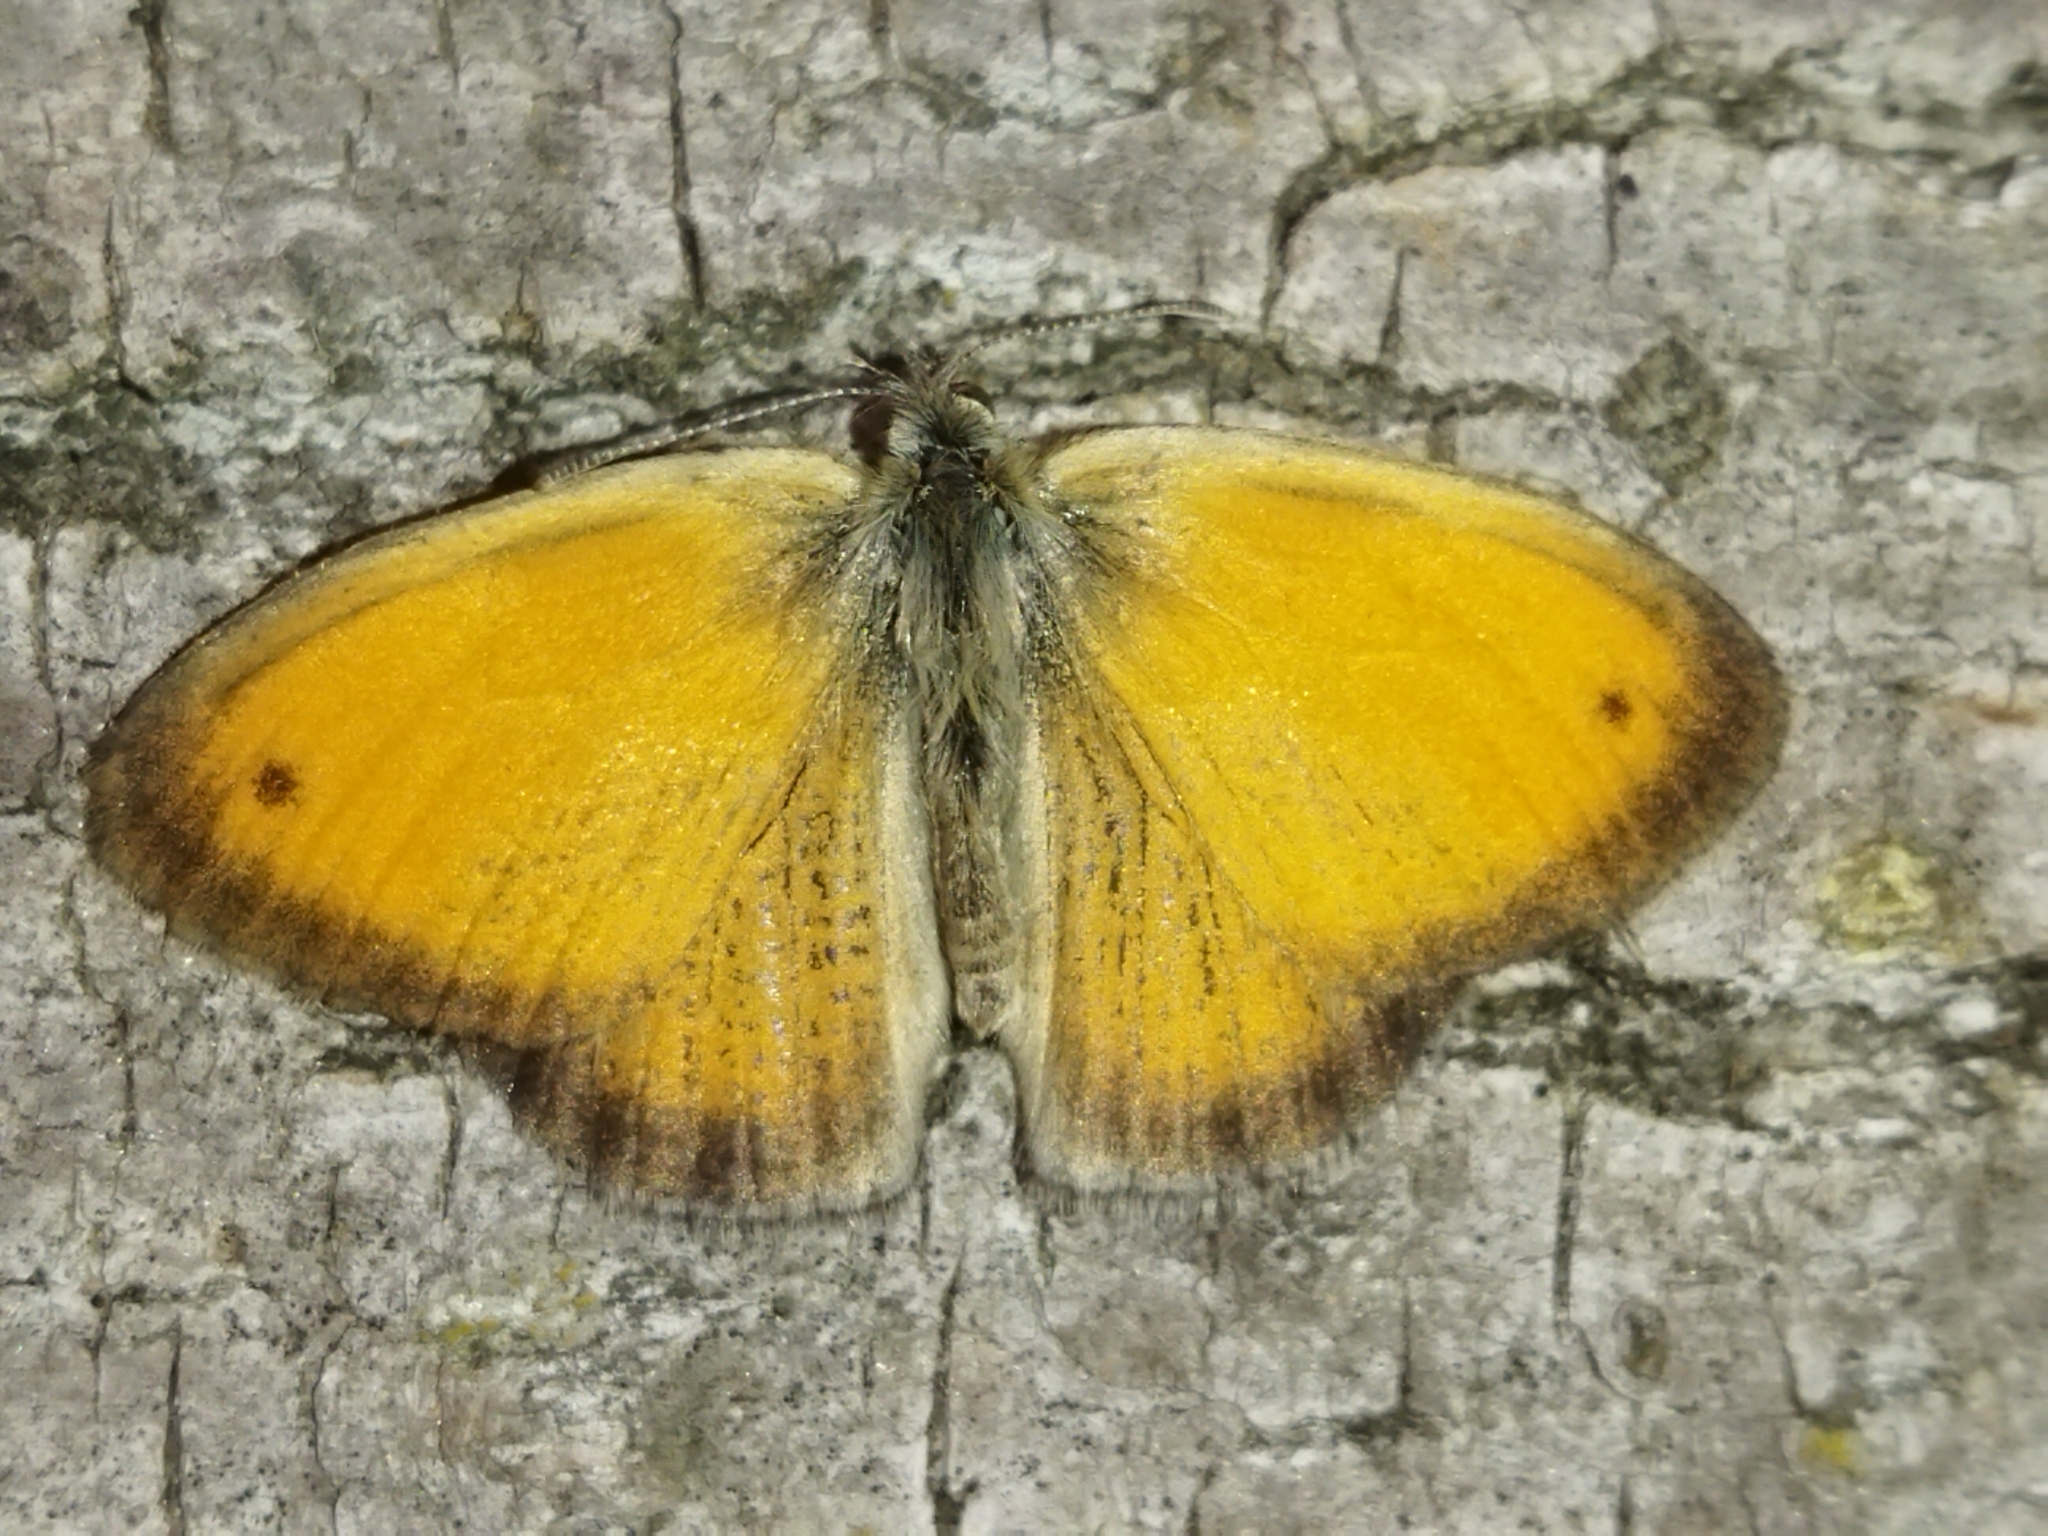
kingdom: Animalia
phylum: Arthropoda
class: Insecta
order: Lepidoptera
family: Nymphalidae
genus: Coenonympha
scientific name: Coenonympha pamphilus
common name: Small heath
